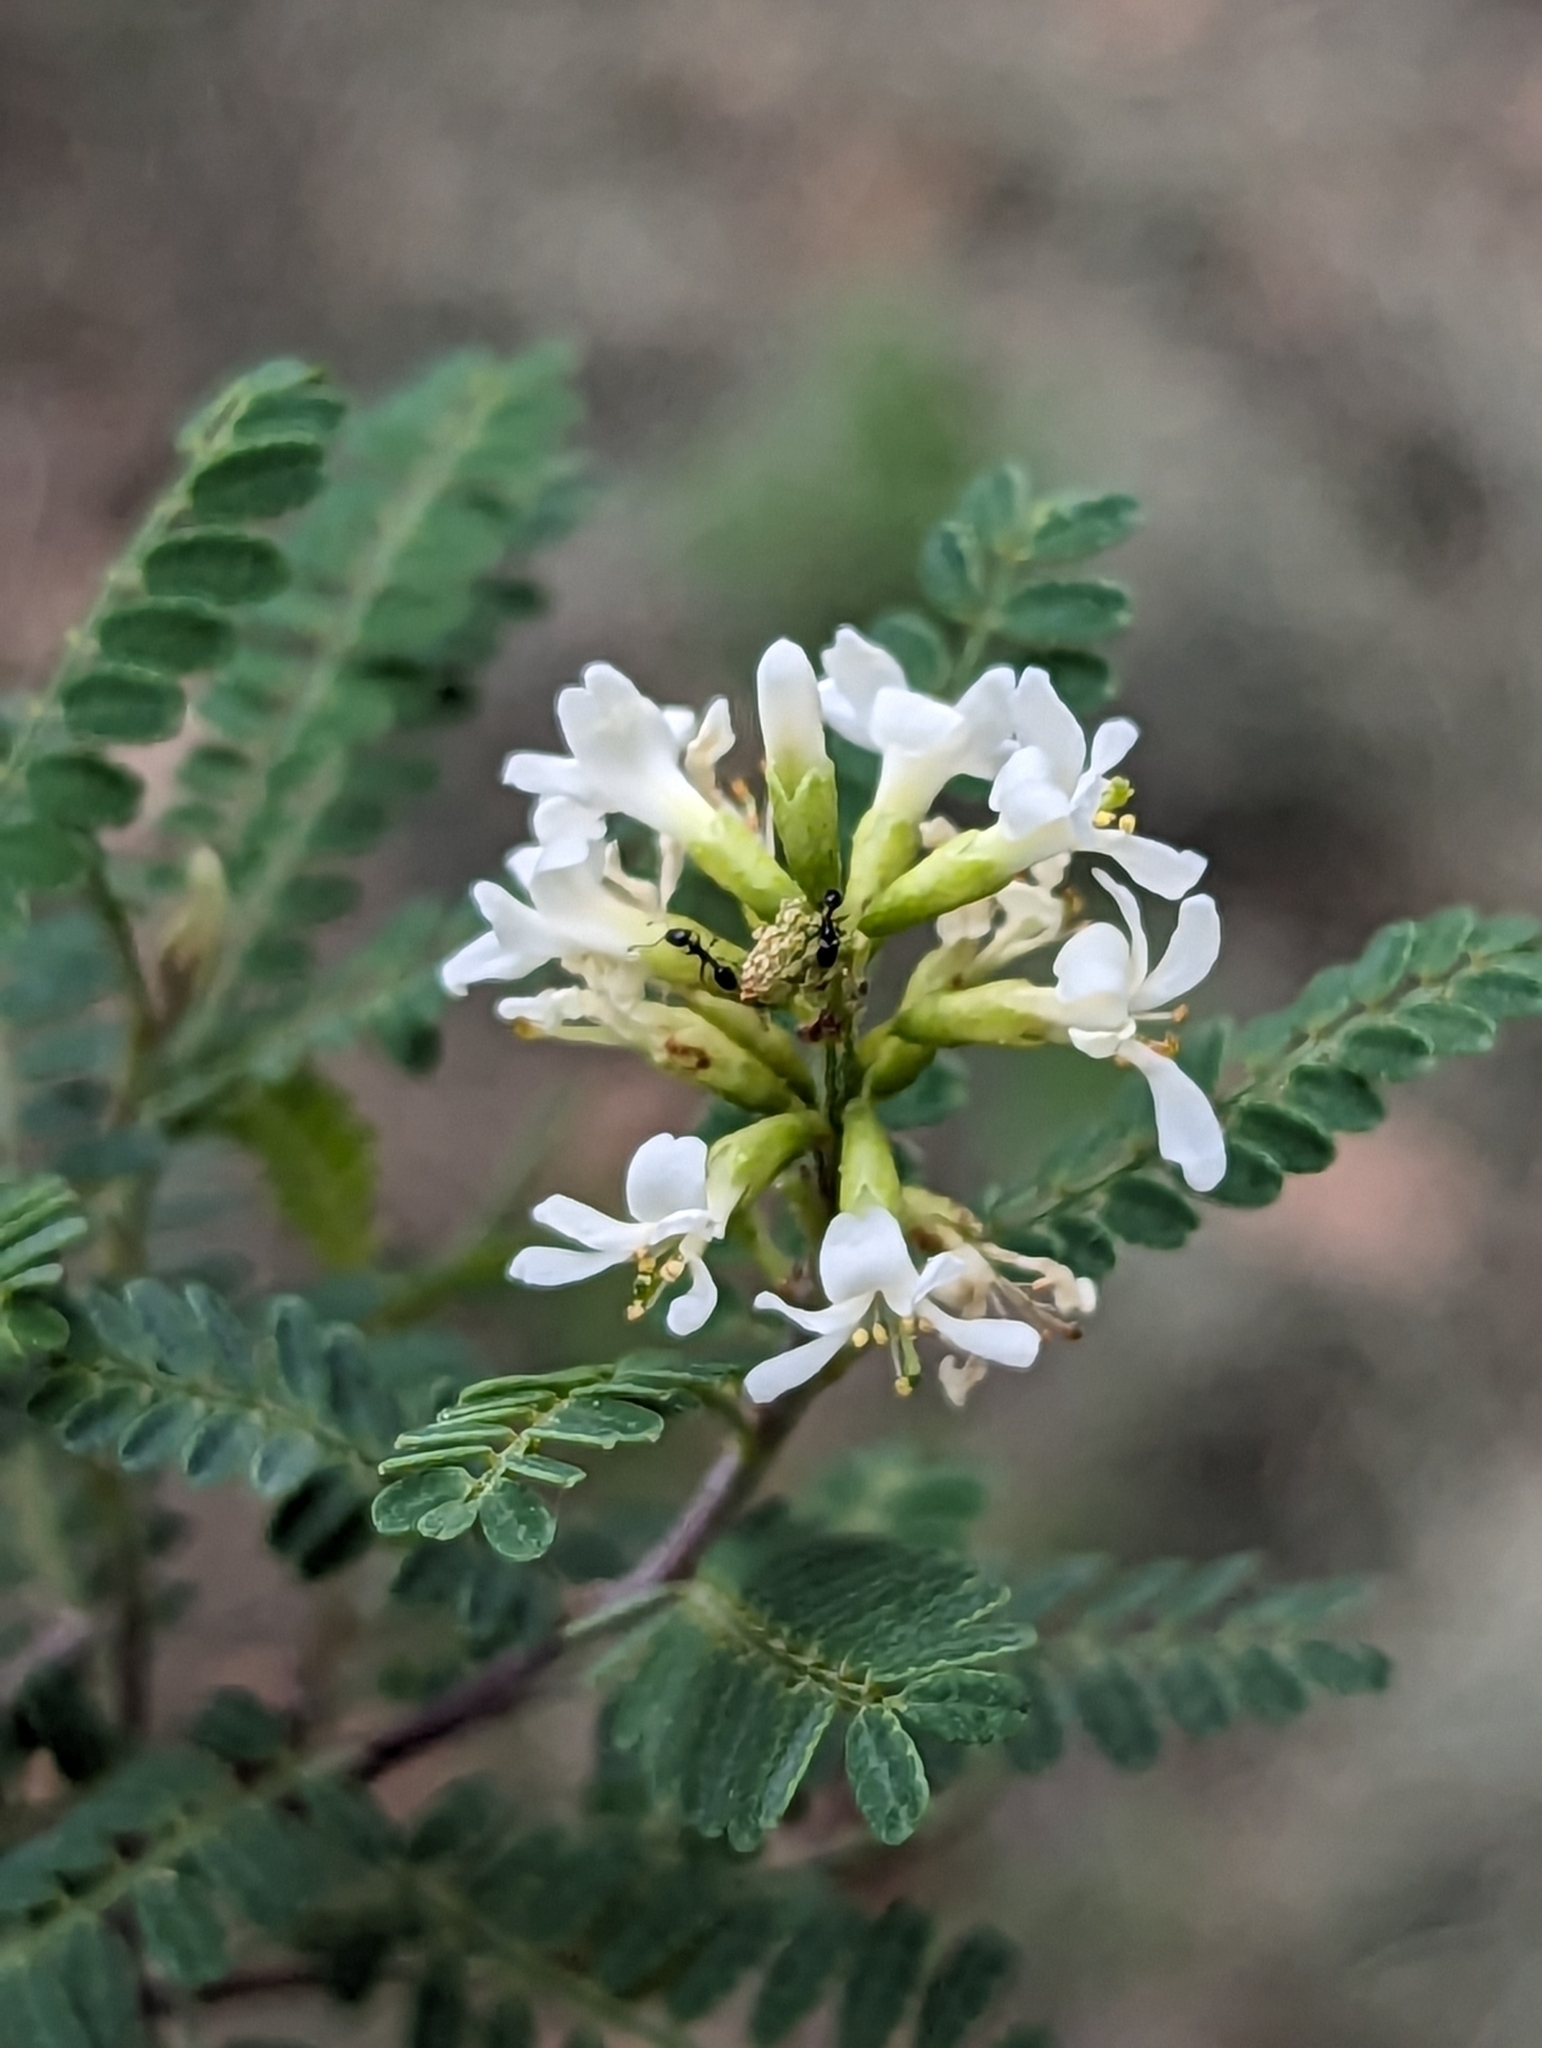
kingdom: Plantae
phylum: Tracheophyta
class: Magnoliopsida
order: Fabales
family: Fabaceae
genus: Eysenhardtia
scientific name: Eysenhardtia texana
